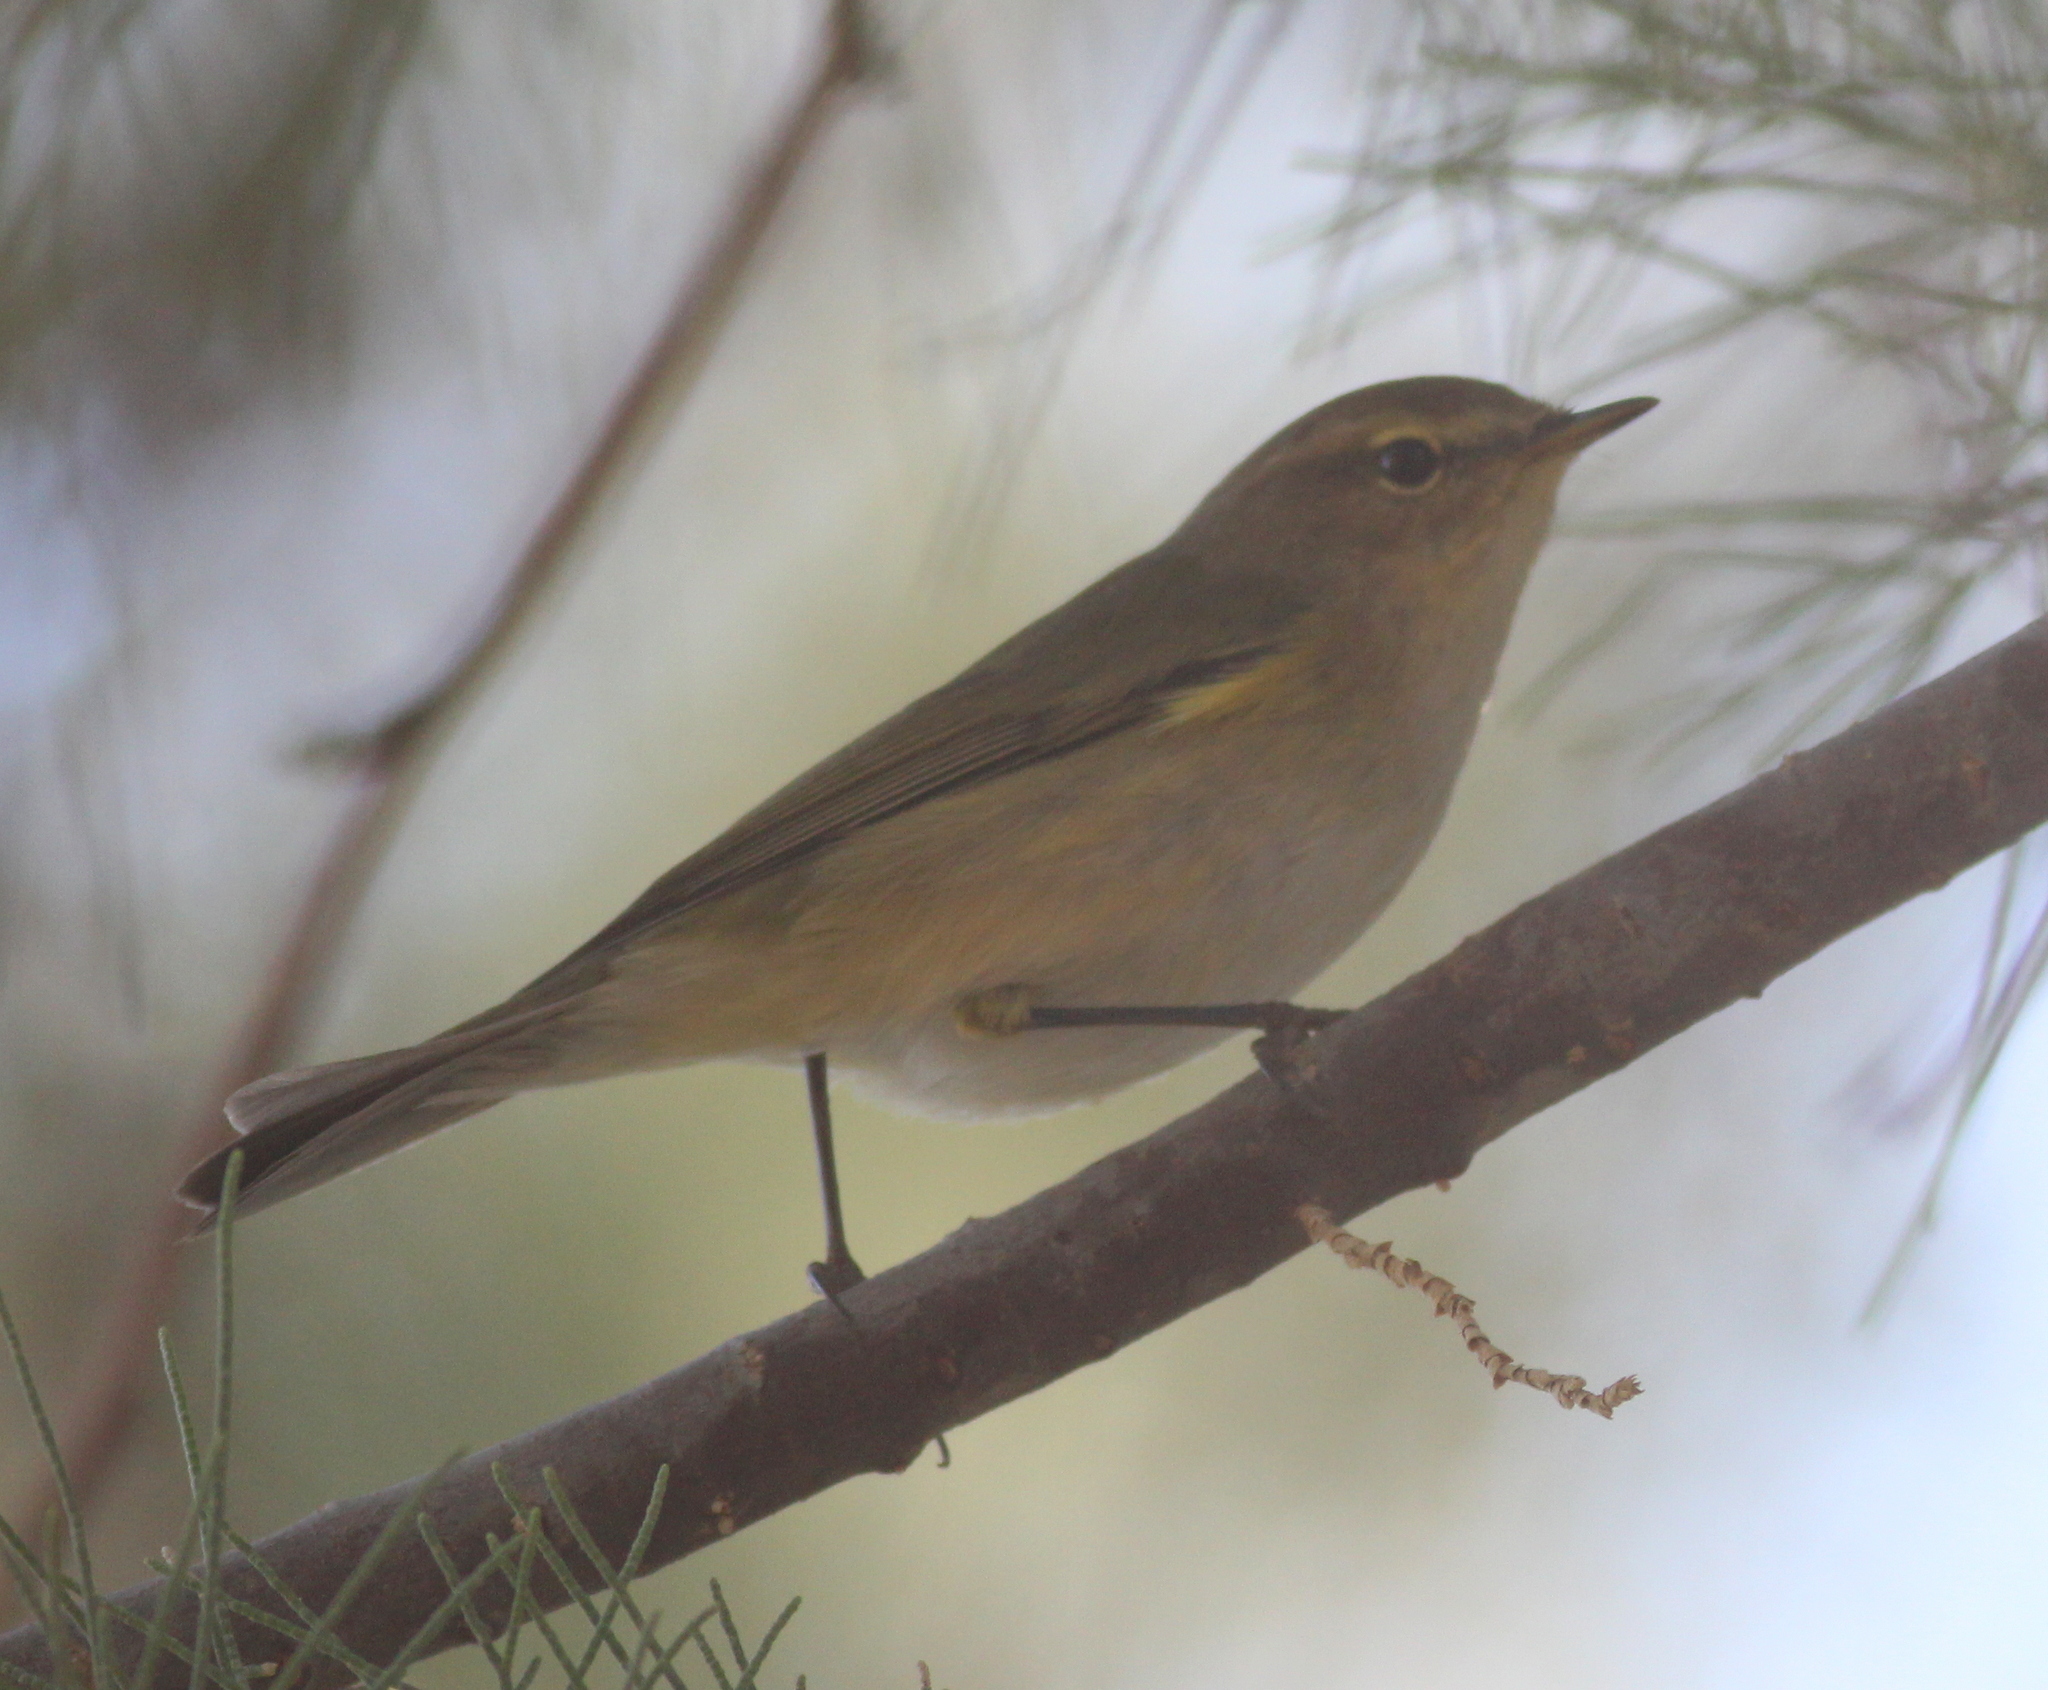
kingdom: Animalia
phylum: Chordata
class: Aves
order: Passeriformes
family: Phylloscopidae
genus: Phylloscopus
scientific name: Phylloscopus collybita
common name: Common chiffchaff
